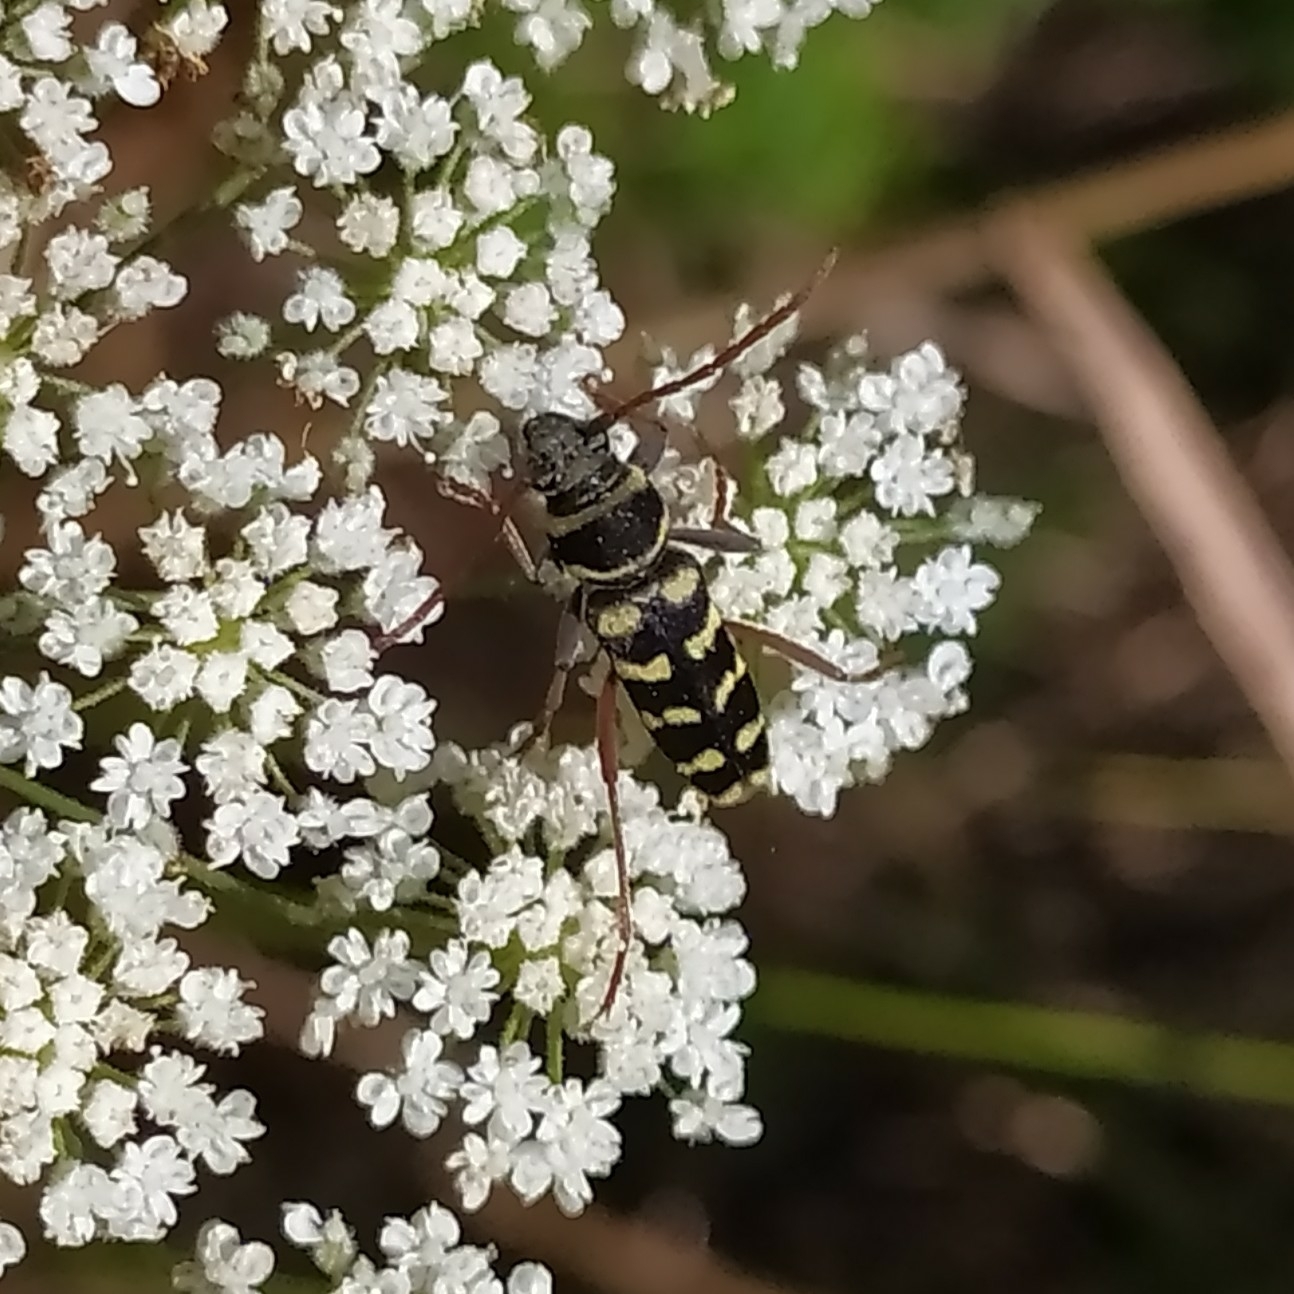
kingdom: Animalia
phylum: Arthropoda
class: Insecta
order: Coleoptera
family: Cerambycidae
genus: Plagionotus
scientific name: Plagionotus floralis
